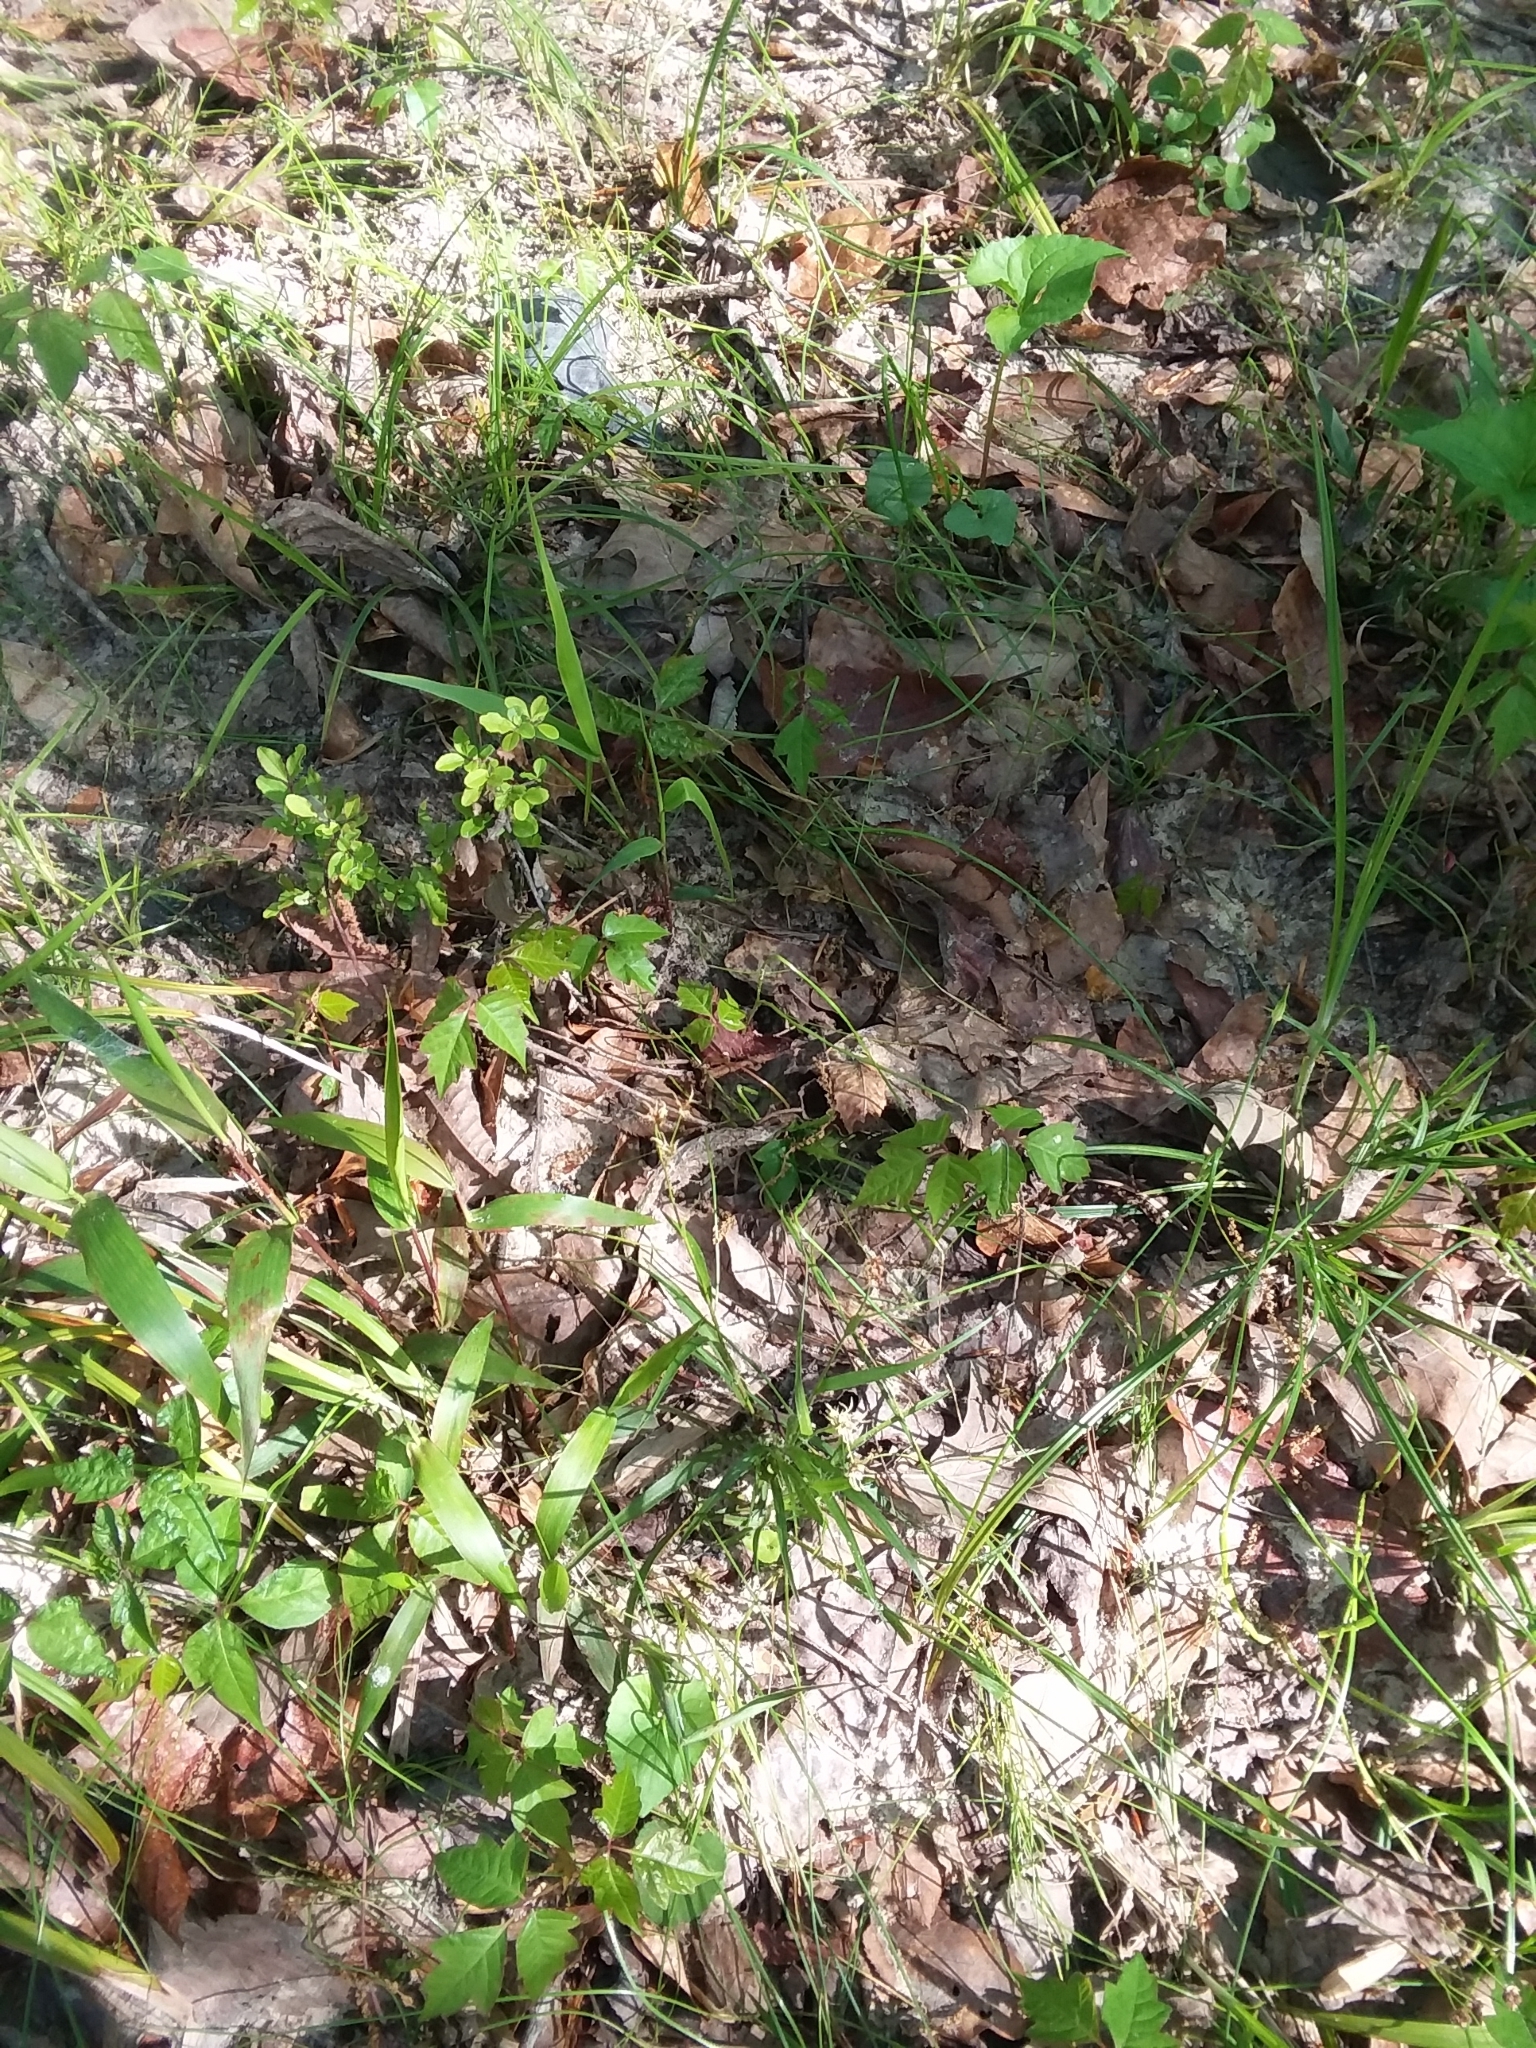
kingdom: Plantae
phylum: Tracheophyta
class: Liliopsida
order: Poales
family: Juncaceae
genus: Luzula
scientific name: Luzula echinata
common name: Hedgehog woodrush
